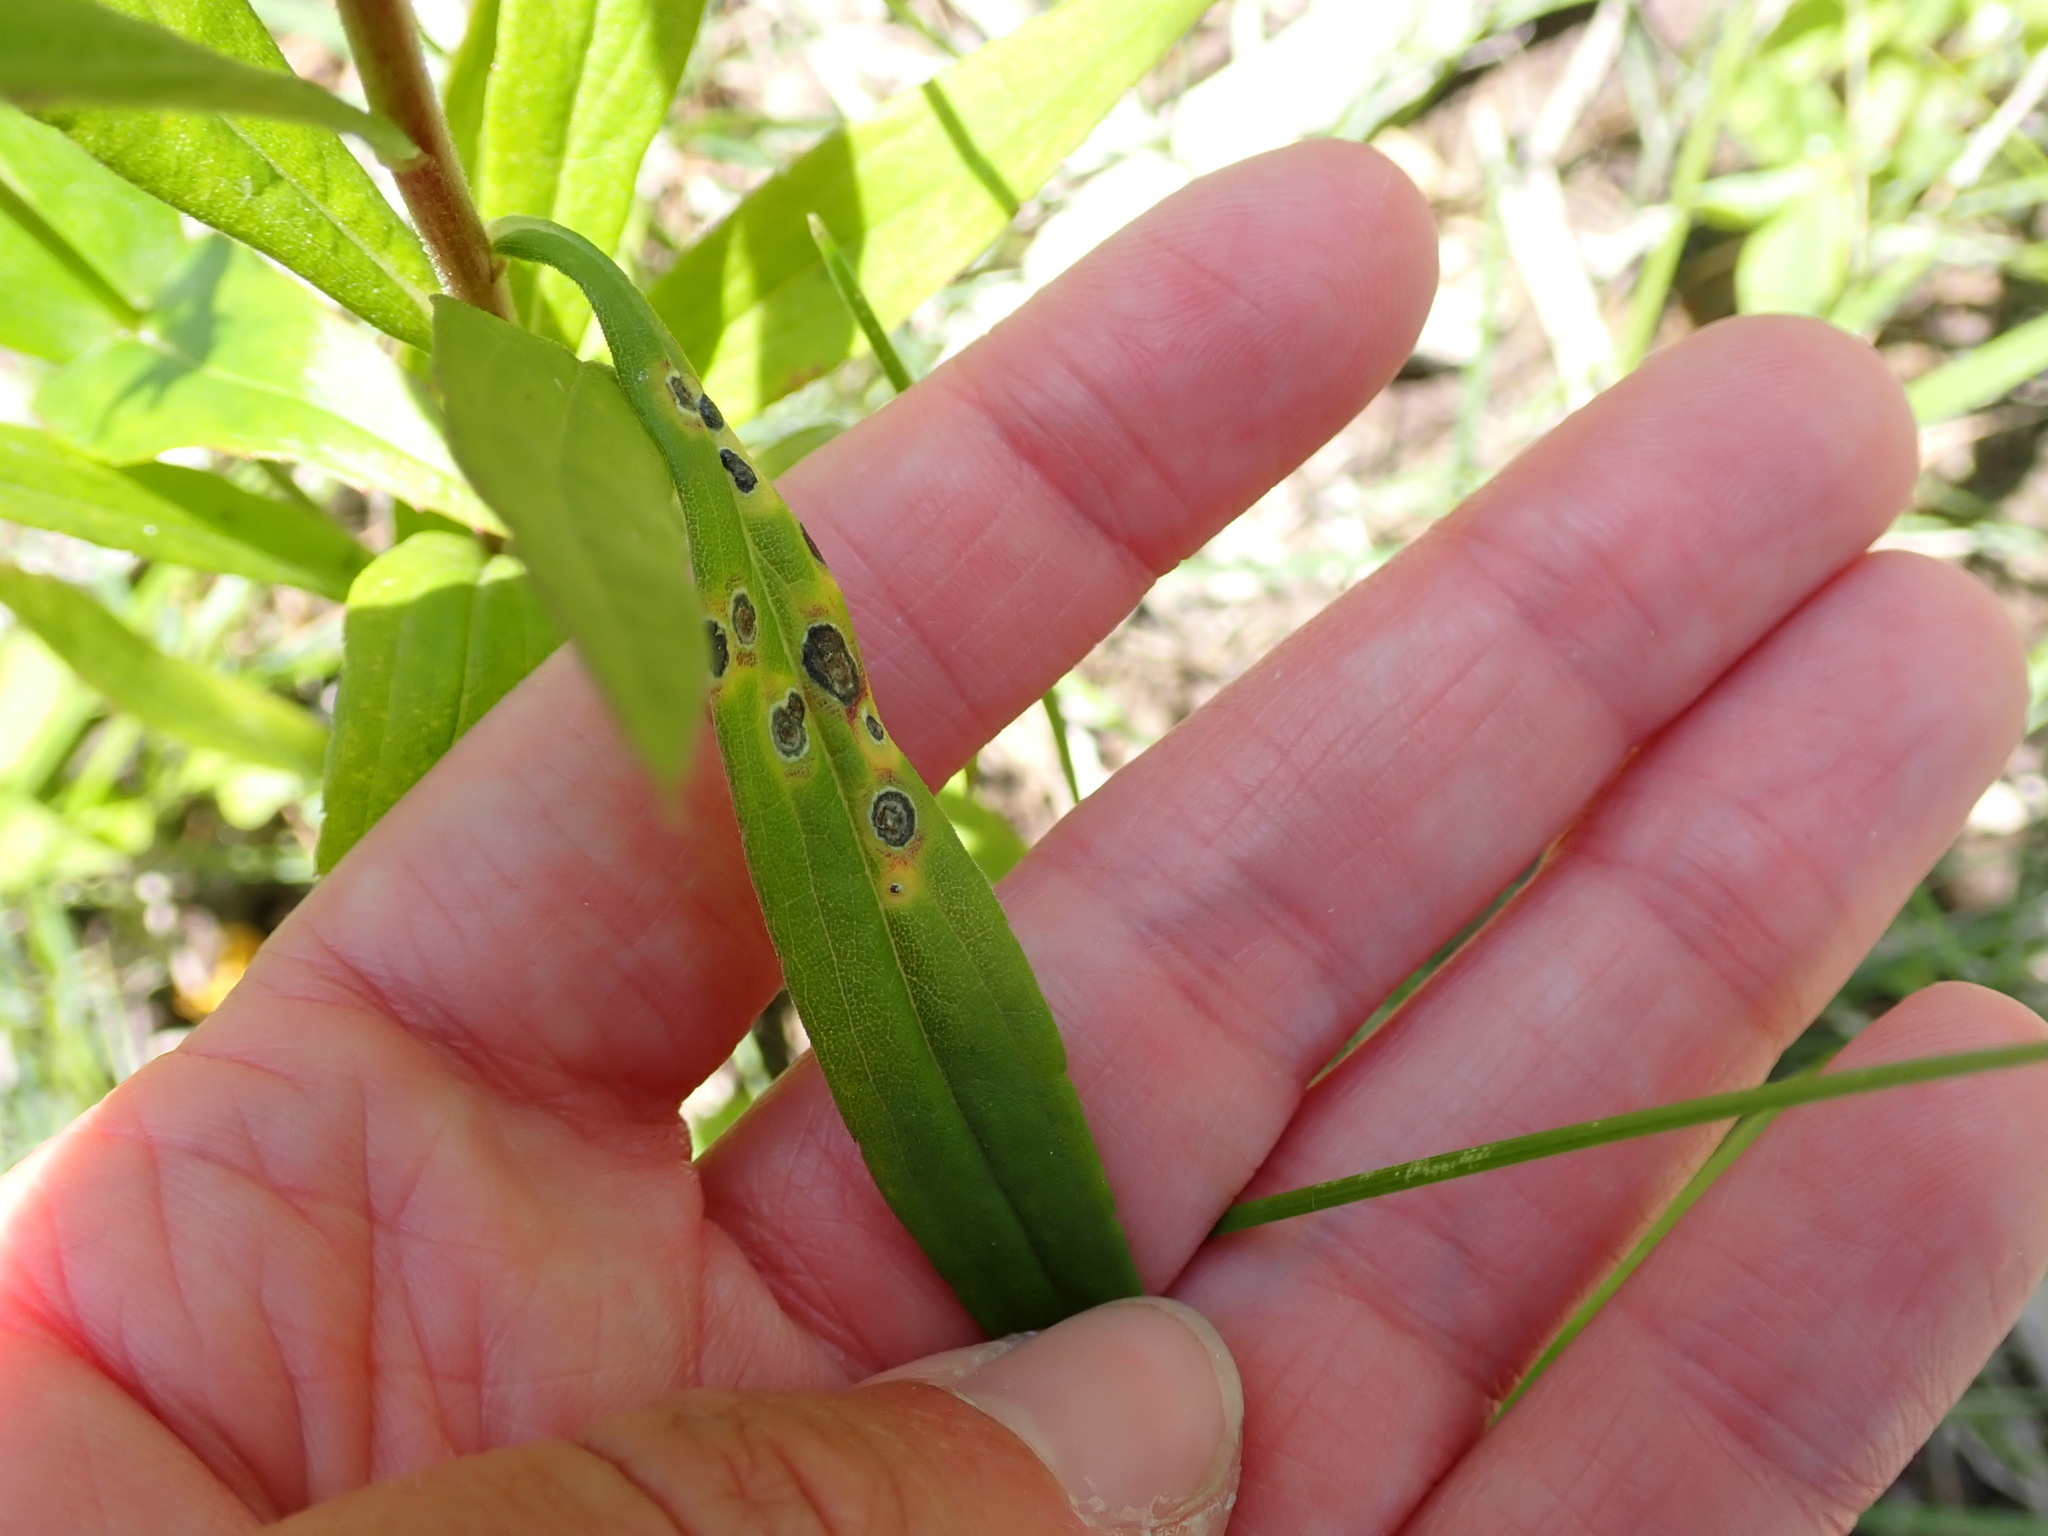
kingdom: Animalia
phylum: Arthropoda
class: Insecta
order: Diptera
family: Cecidomyiidae
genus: Asteromyia
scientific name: Asteromyia carbonifera
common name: Carbonifera goldenrod gall midge
